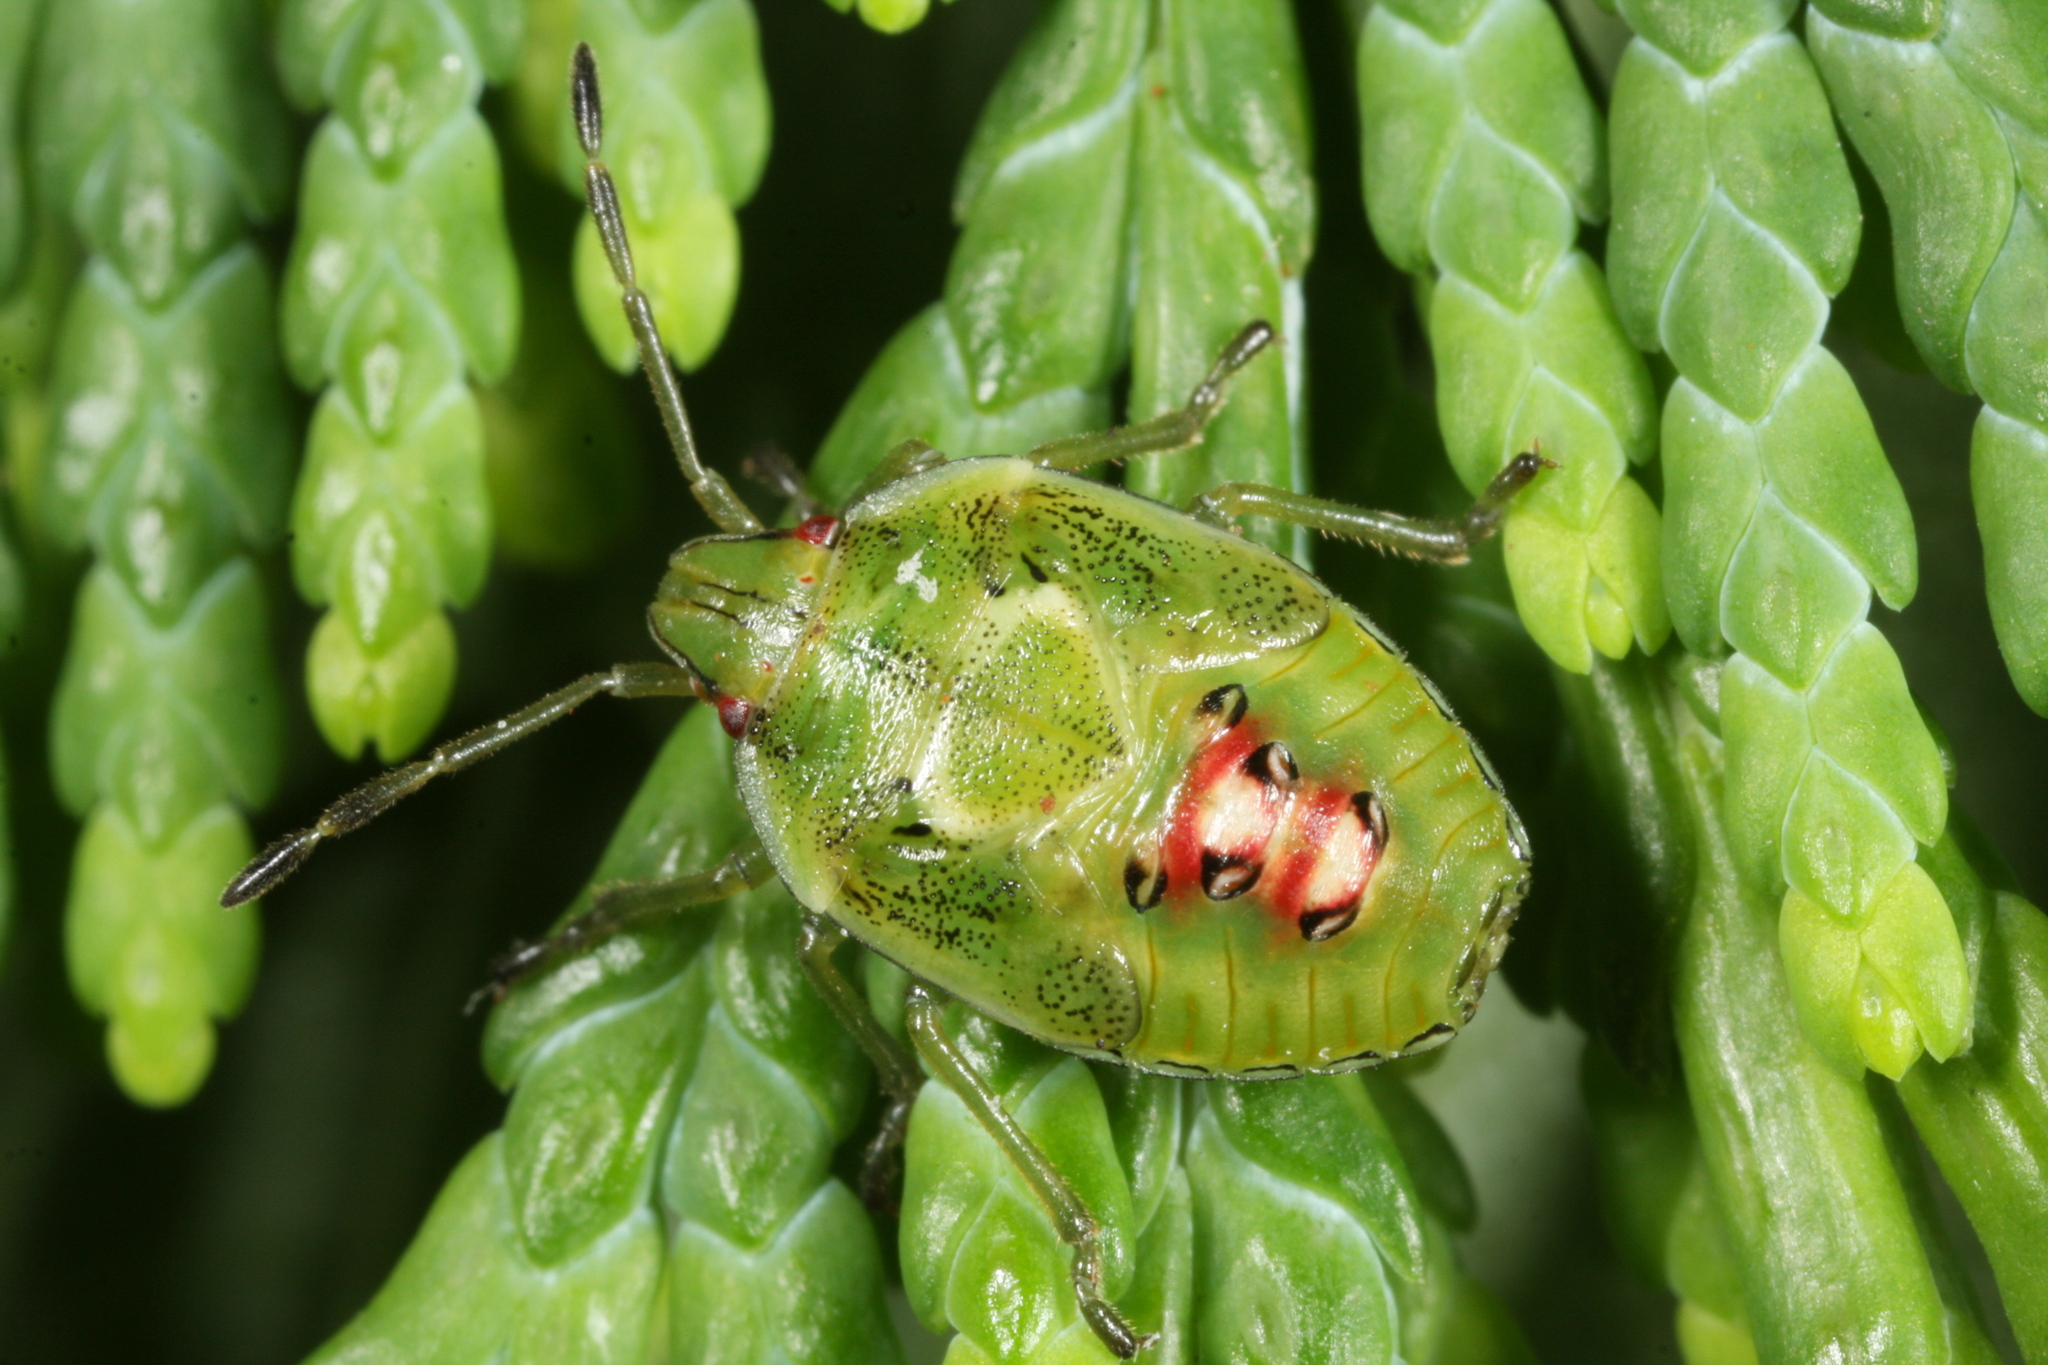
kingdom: Animalia
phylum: Arthropoda
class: Insecta
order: Hemiptera
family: Acanthosomatidae
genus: Cyphostethus
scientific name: Cyphostethus tristriatus
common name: Juniper shieldbug
